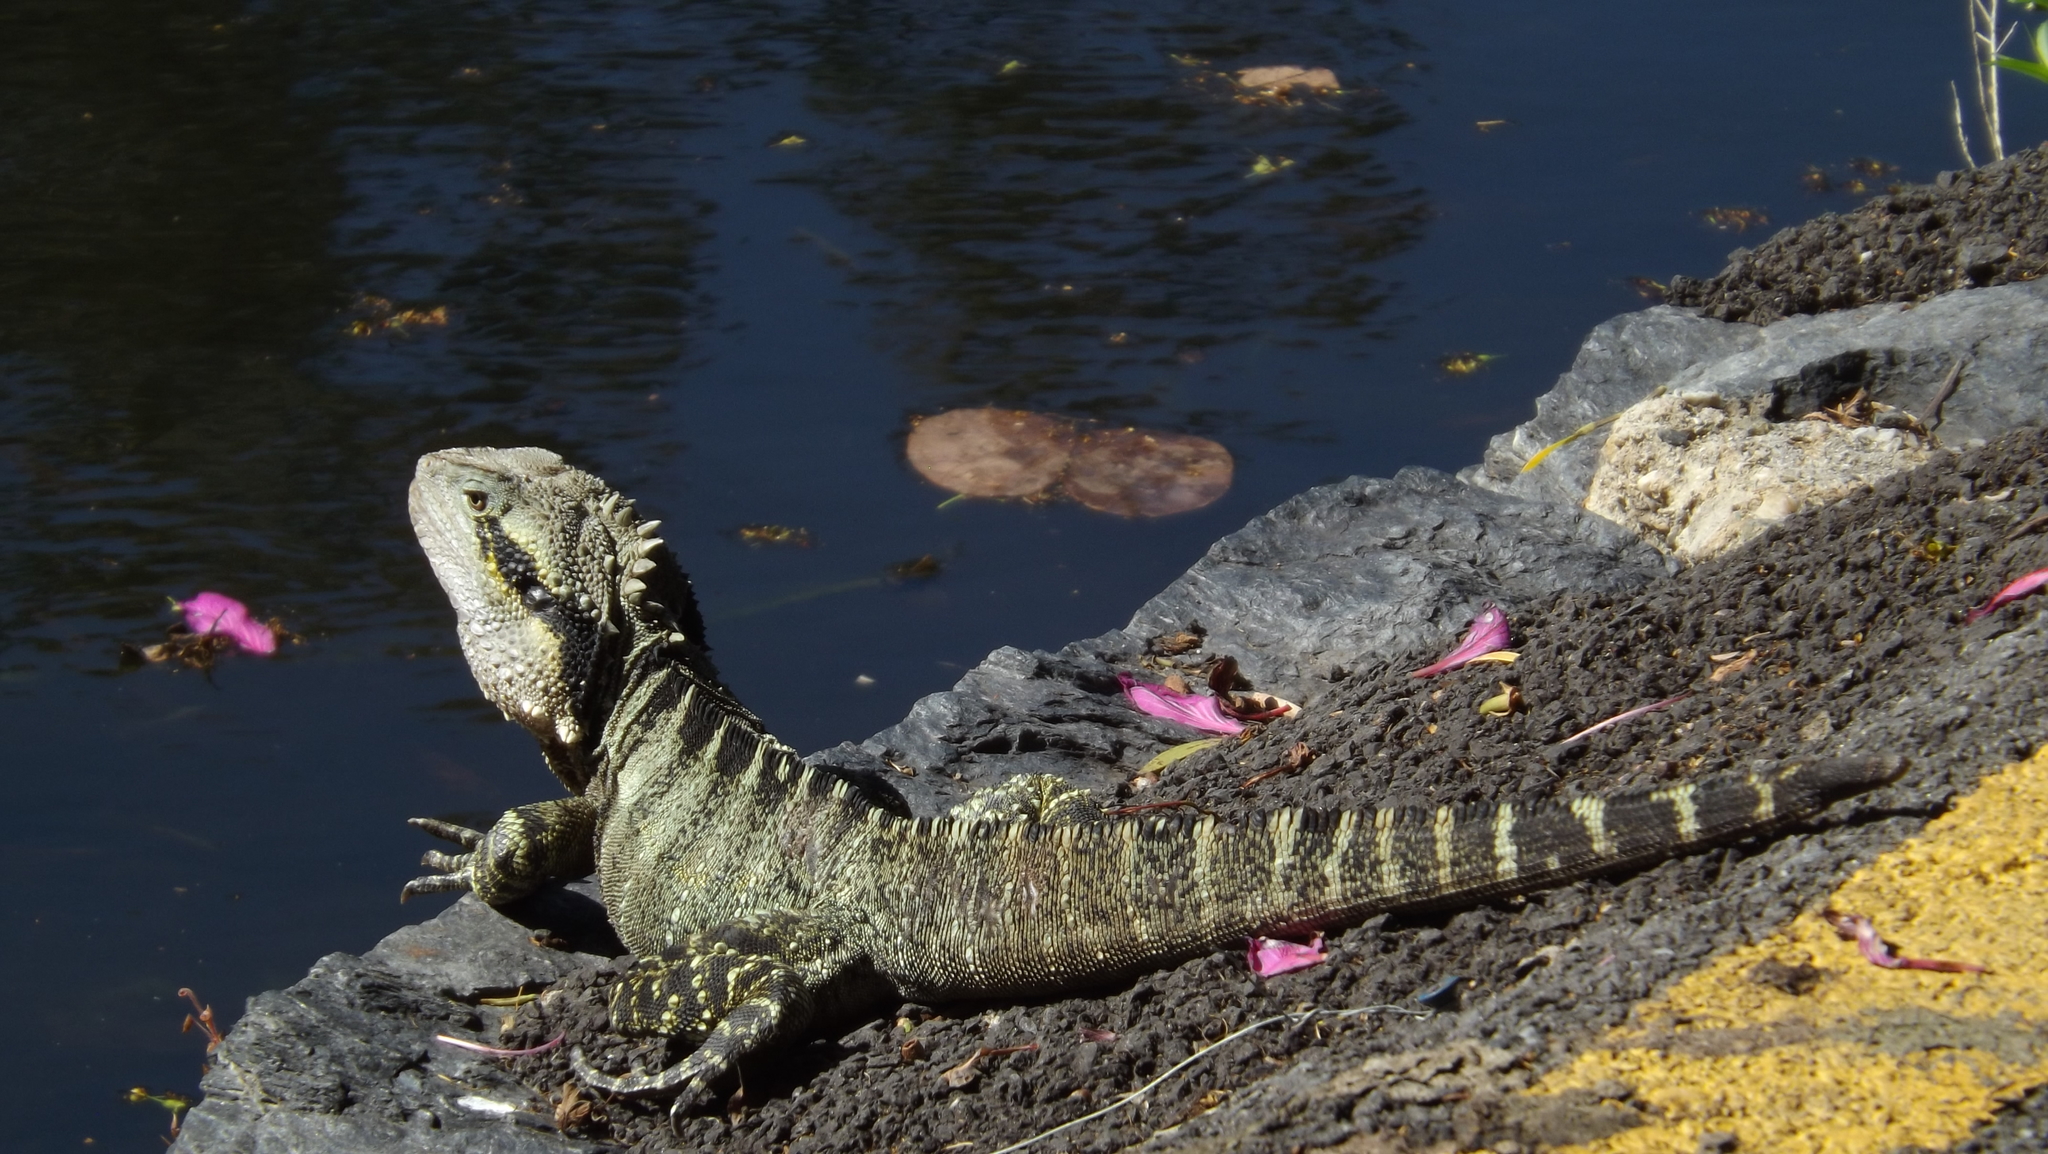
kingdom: Animalia
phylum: Chordata
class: Squamata
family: Agamidae
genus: Intellagama
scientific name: Intellagama lesueurii
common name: Eastern water dragon
